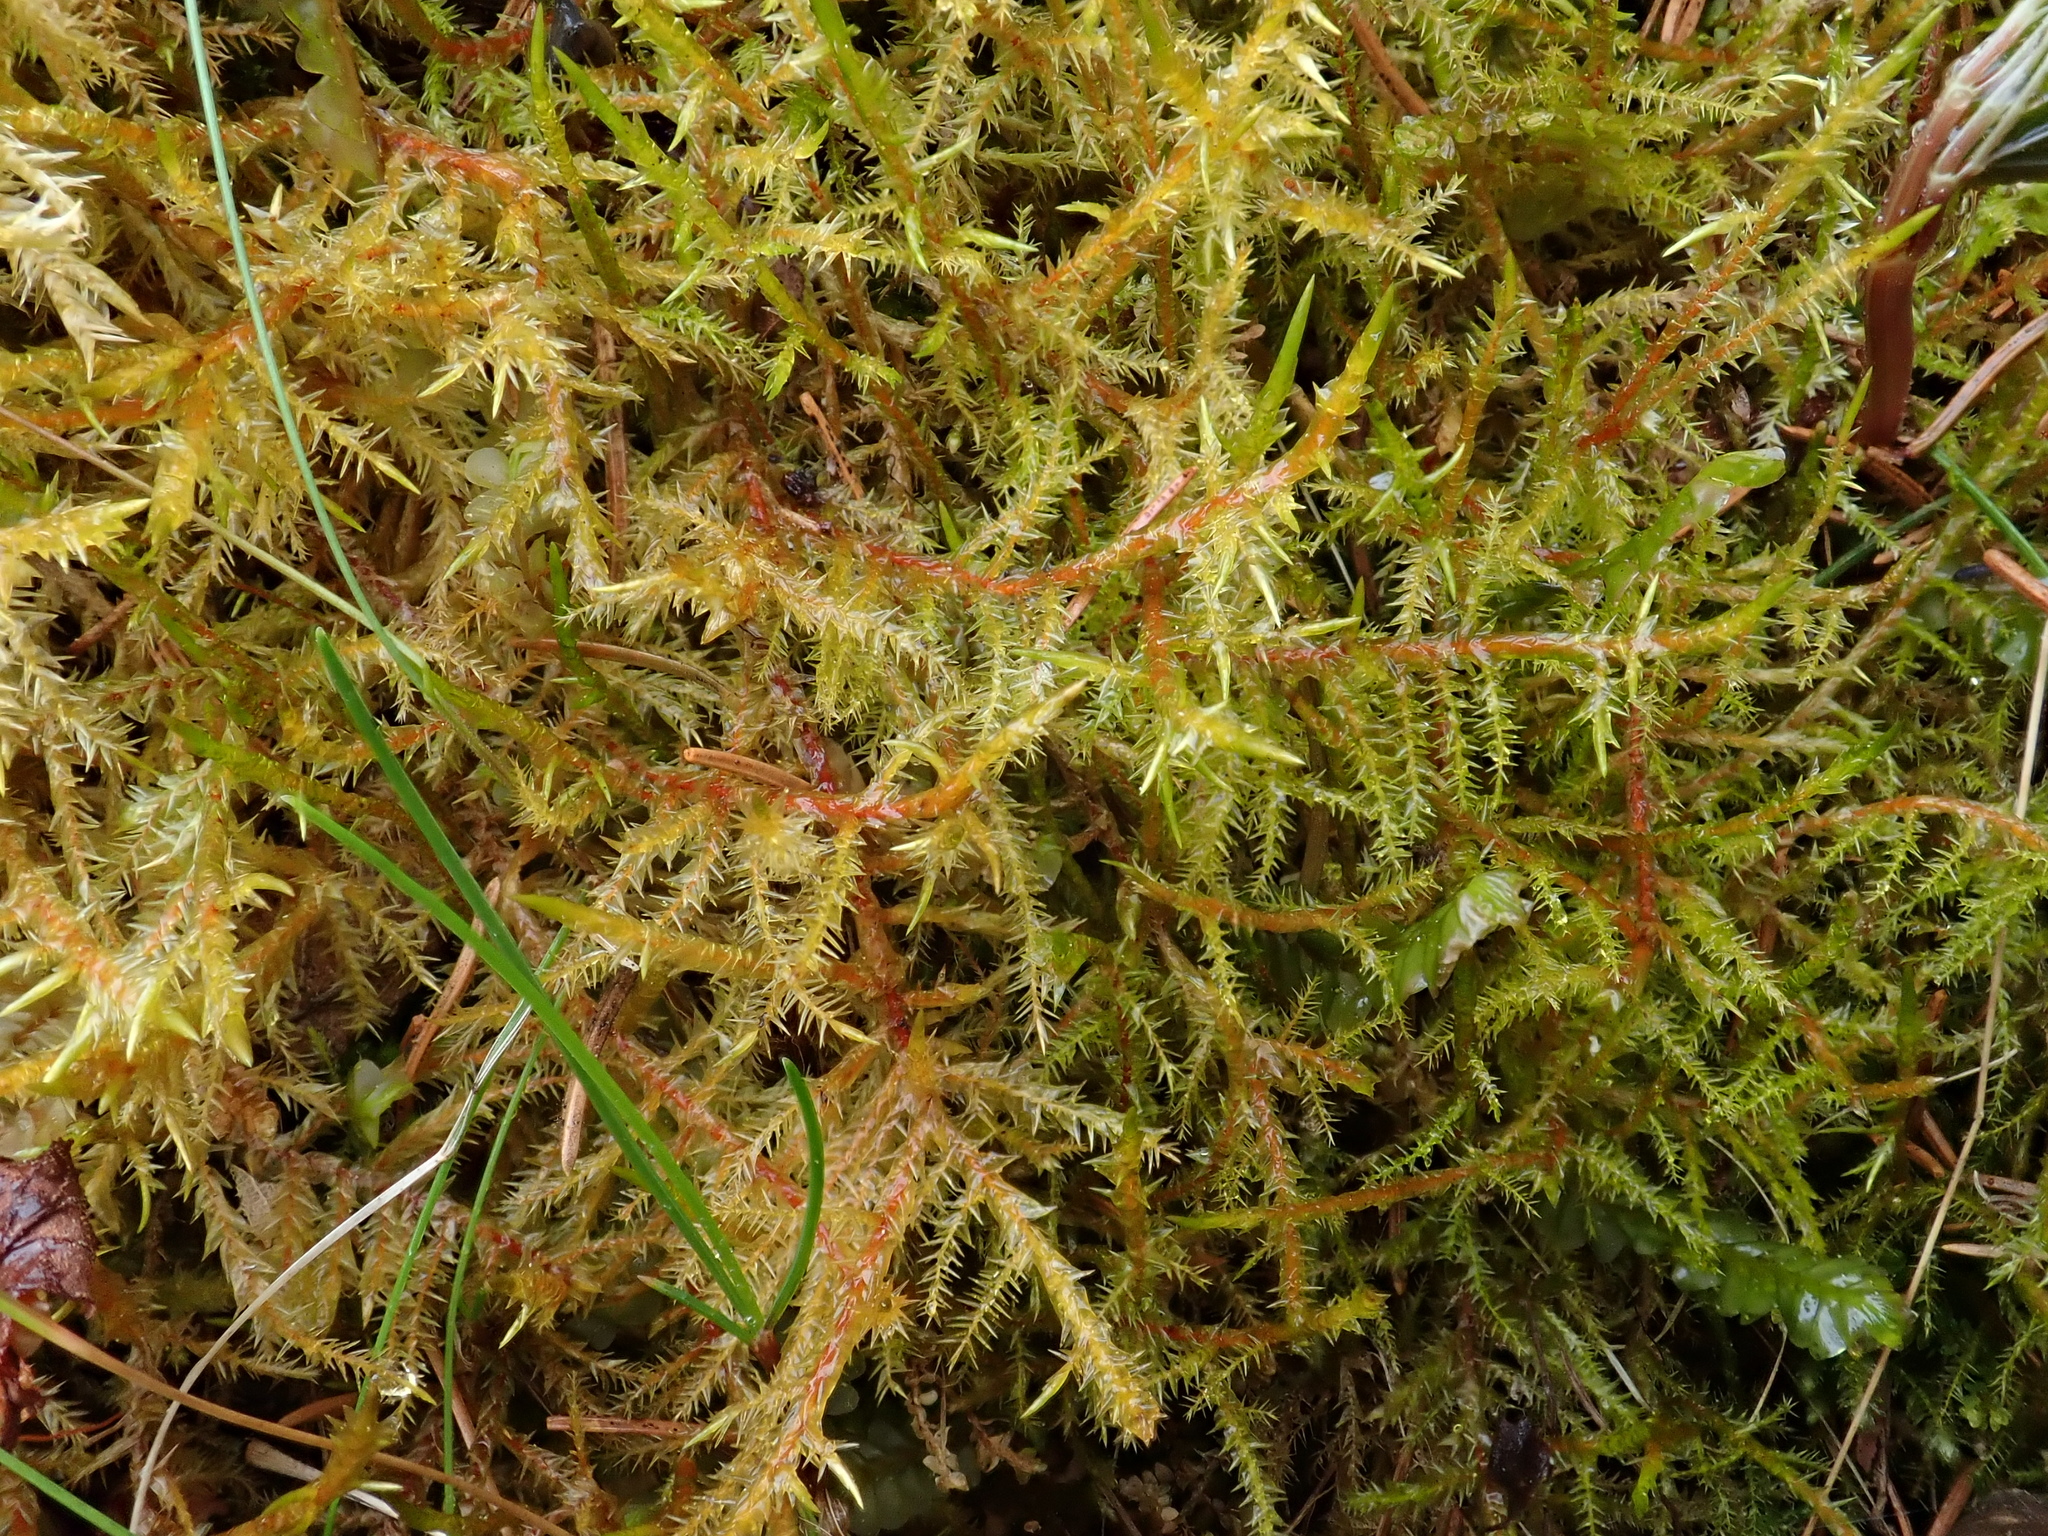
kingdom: Plantae
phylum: Bryophyta
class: Bryopsida
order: Hypnales
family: Pylaisiaceae
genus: Calliergonella
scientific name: Calliergonella cuspidata
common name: Common large wetland moss
